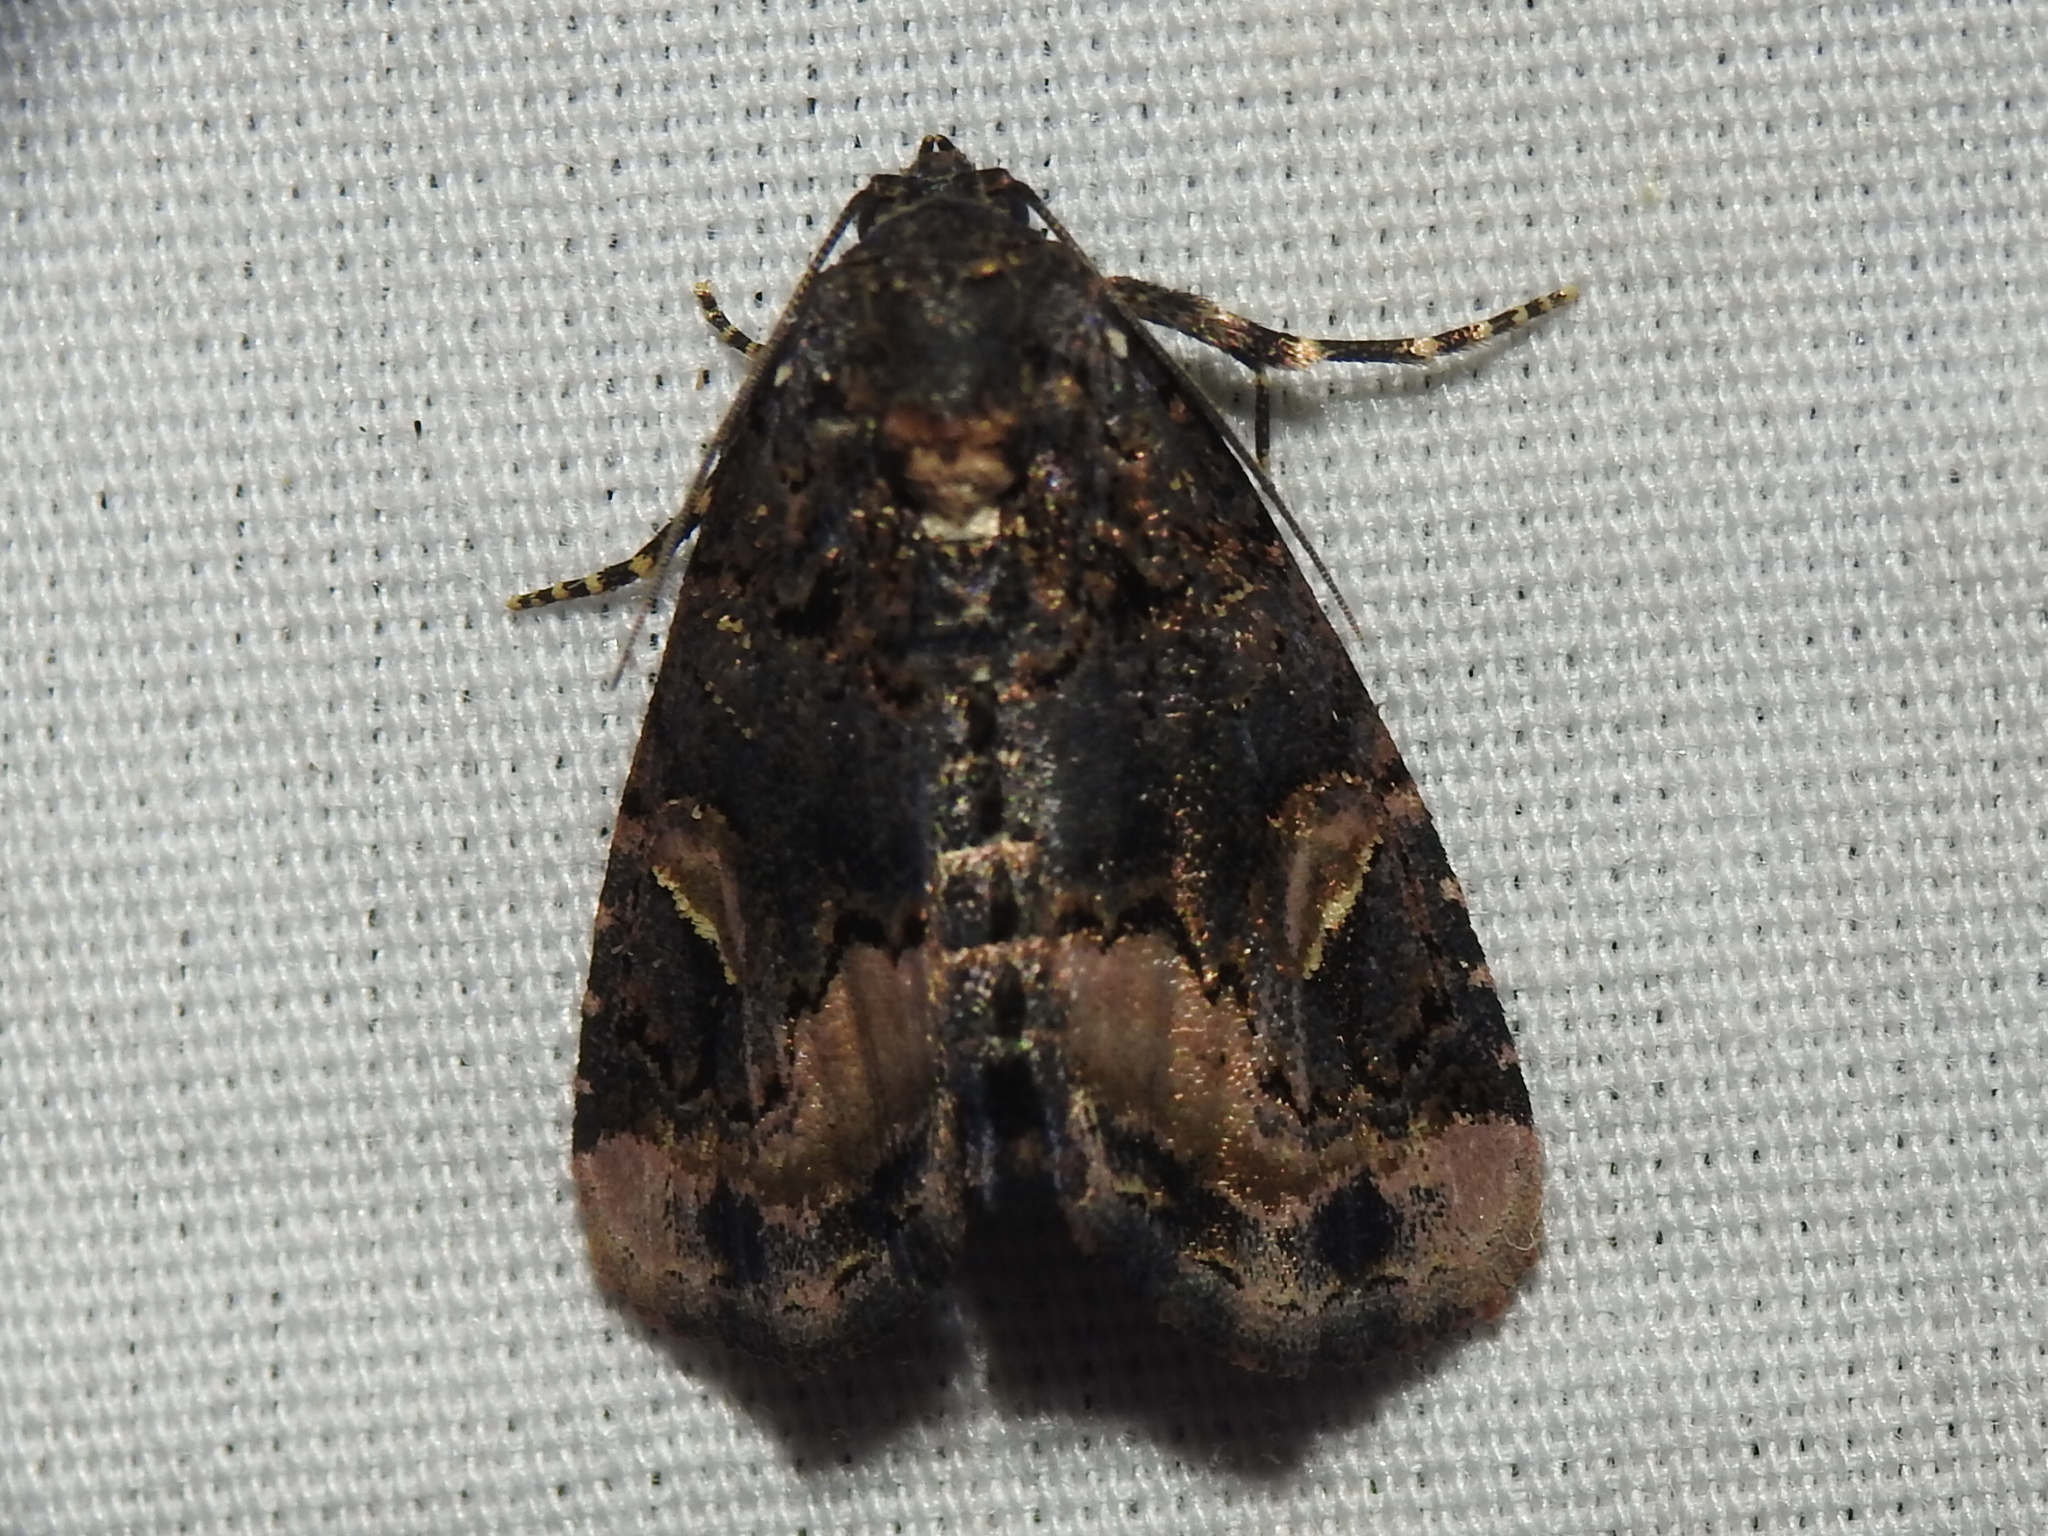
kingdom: Animalia
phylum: Arthropoda
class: Insecta
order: Lepidoptera
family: Noctuidae
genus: Homophoberia
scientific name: Homophoberia apicosa
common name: Black wedge-spot
